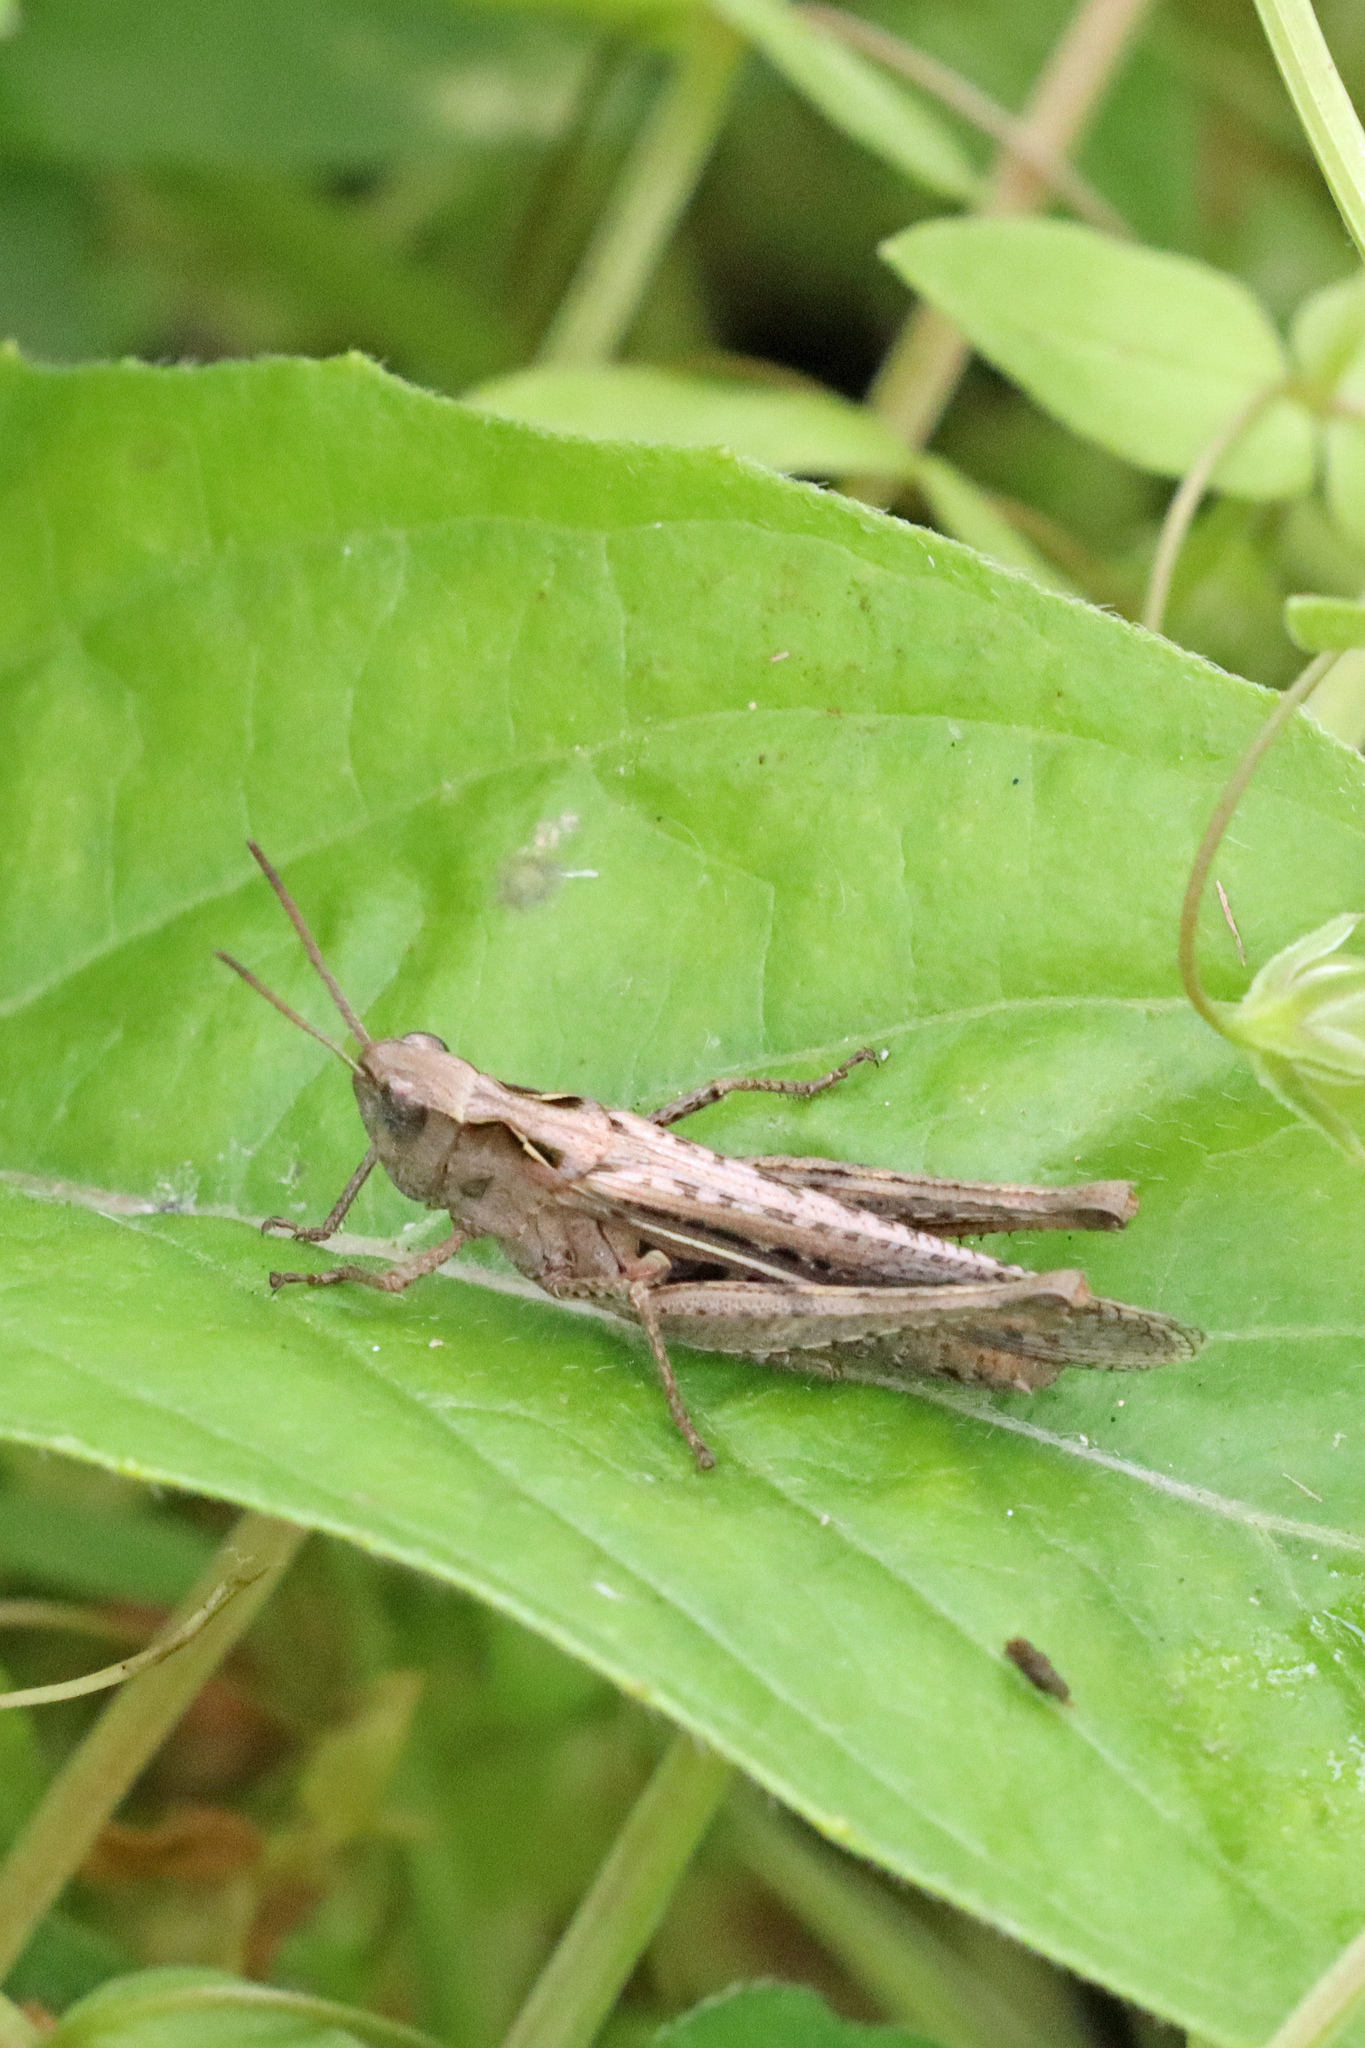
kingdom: Animalia
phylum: Arthropoda
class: Insecta
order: Orthoptera
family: Acrididae
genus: Chorthippus
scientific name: Chorthippus brunneus
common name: Field grasshopper
